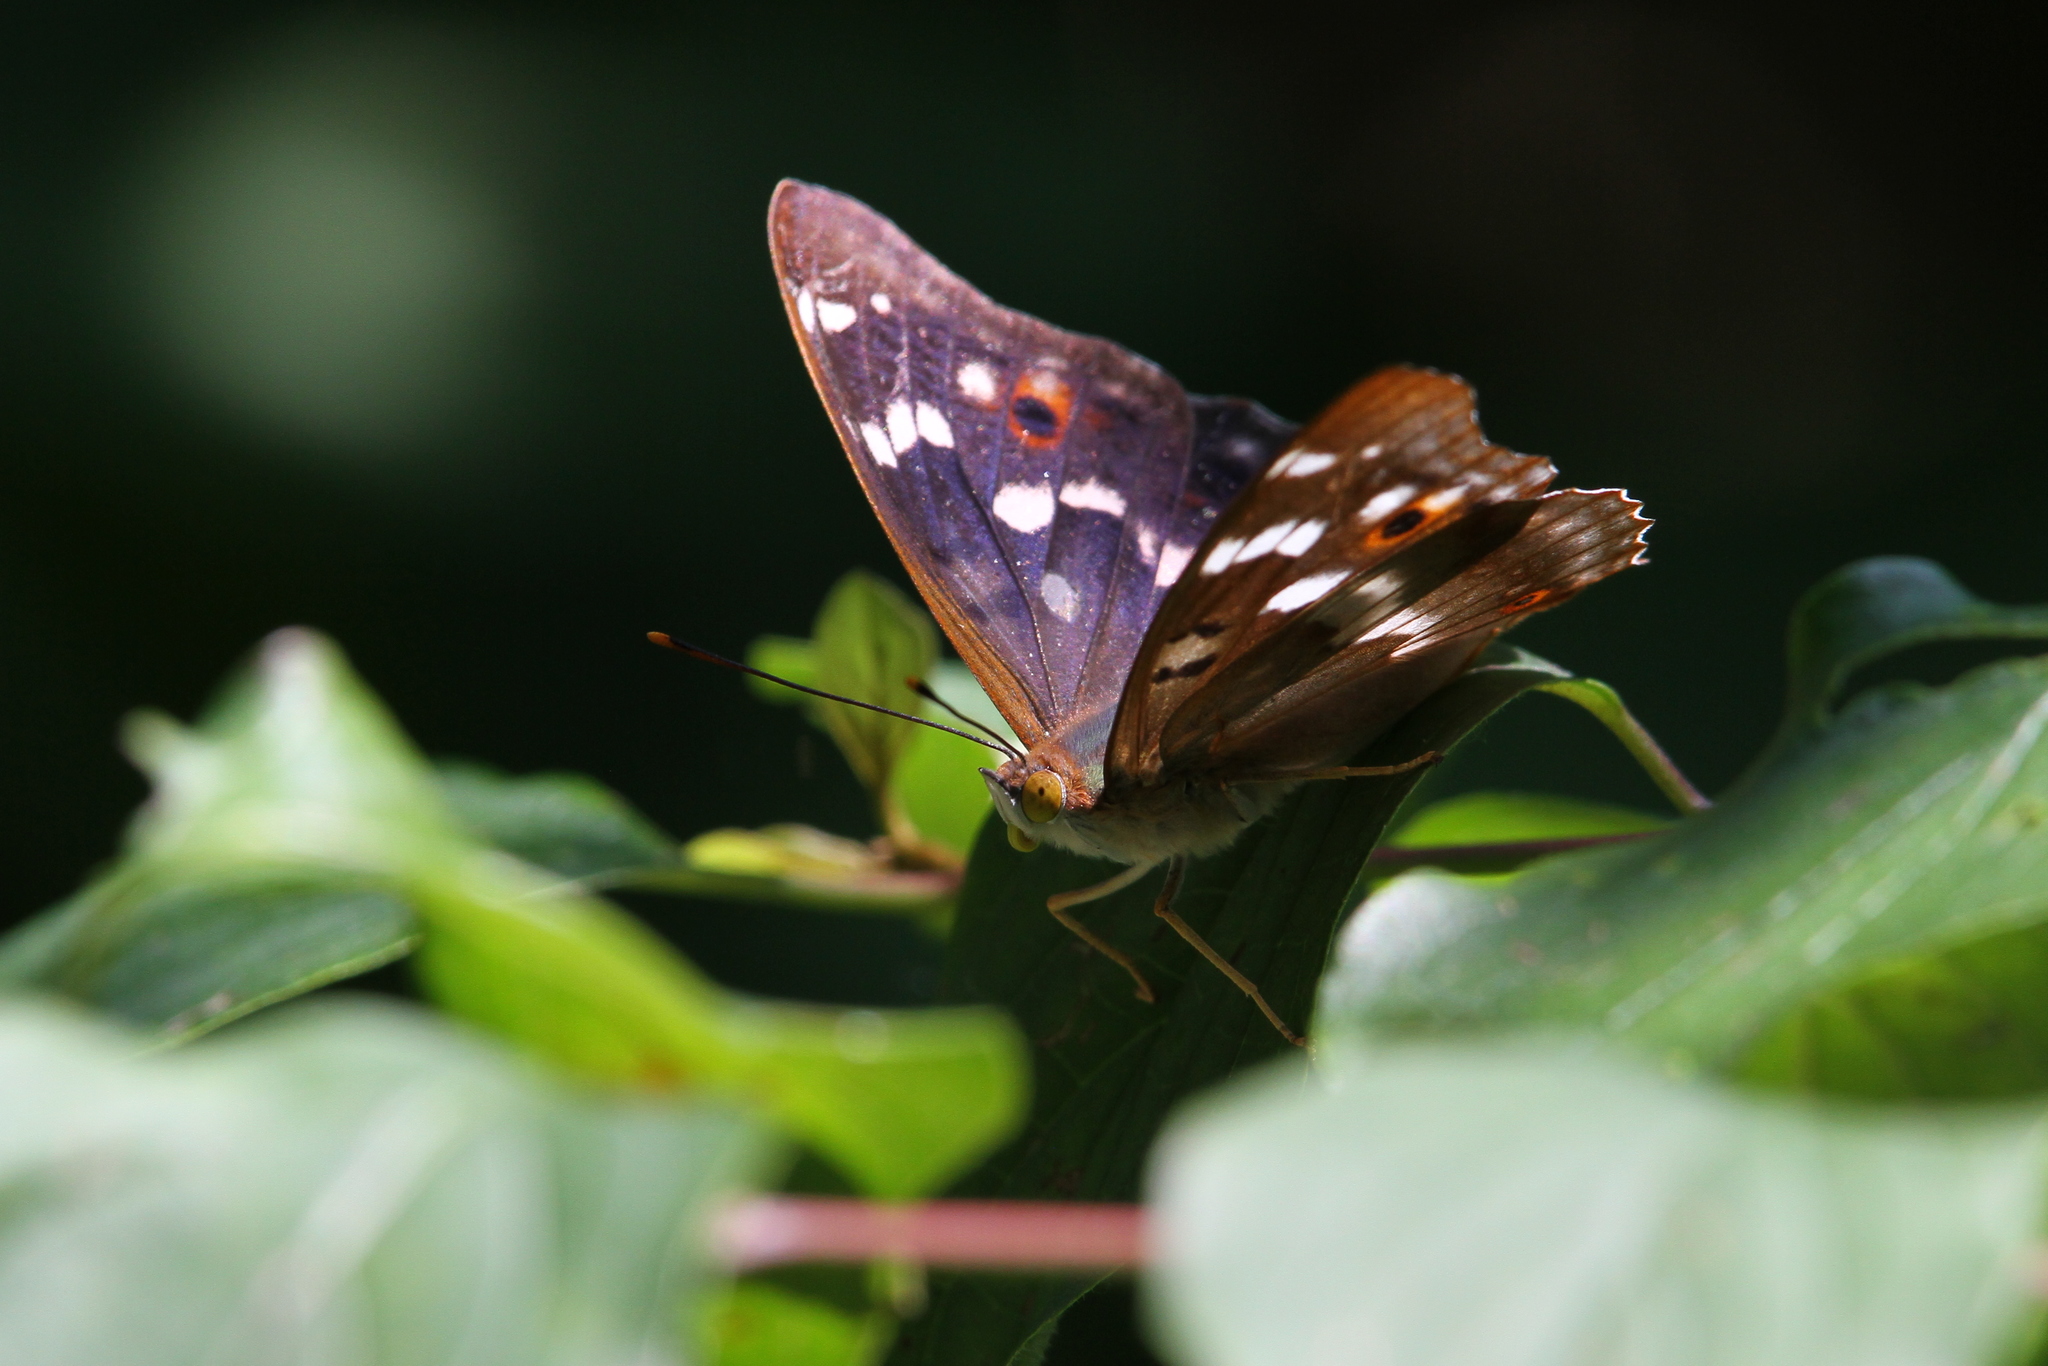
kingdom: Animalia
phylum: Arthropoda
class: Insecta
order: Lepidoptera
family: Nymphalidae
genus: Apatura
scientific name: Apatura ilia
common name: Lesser purple emperor
